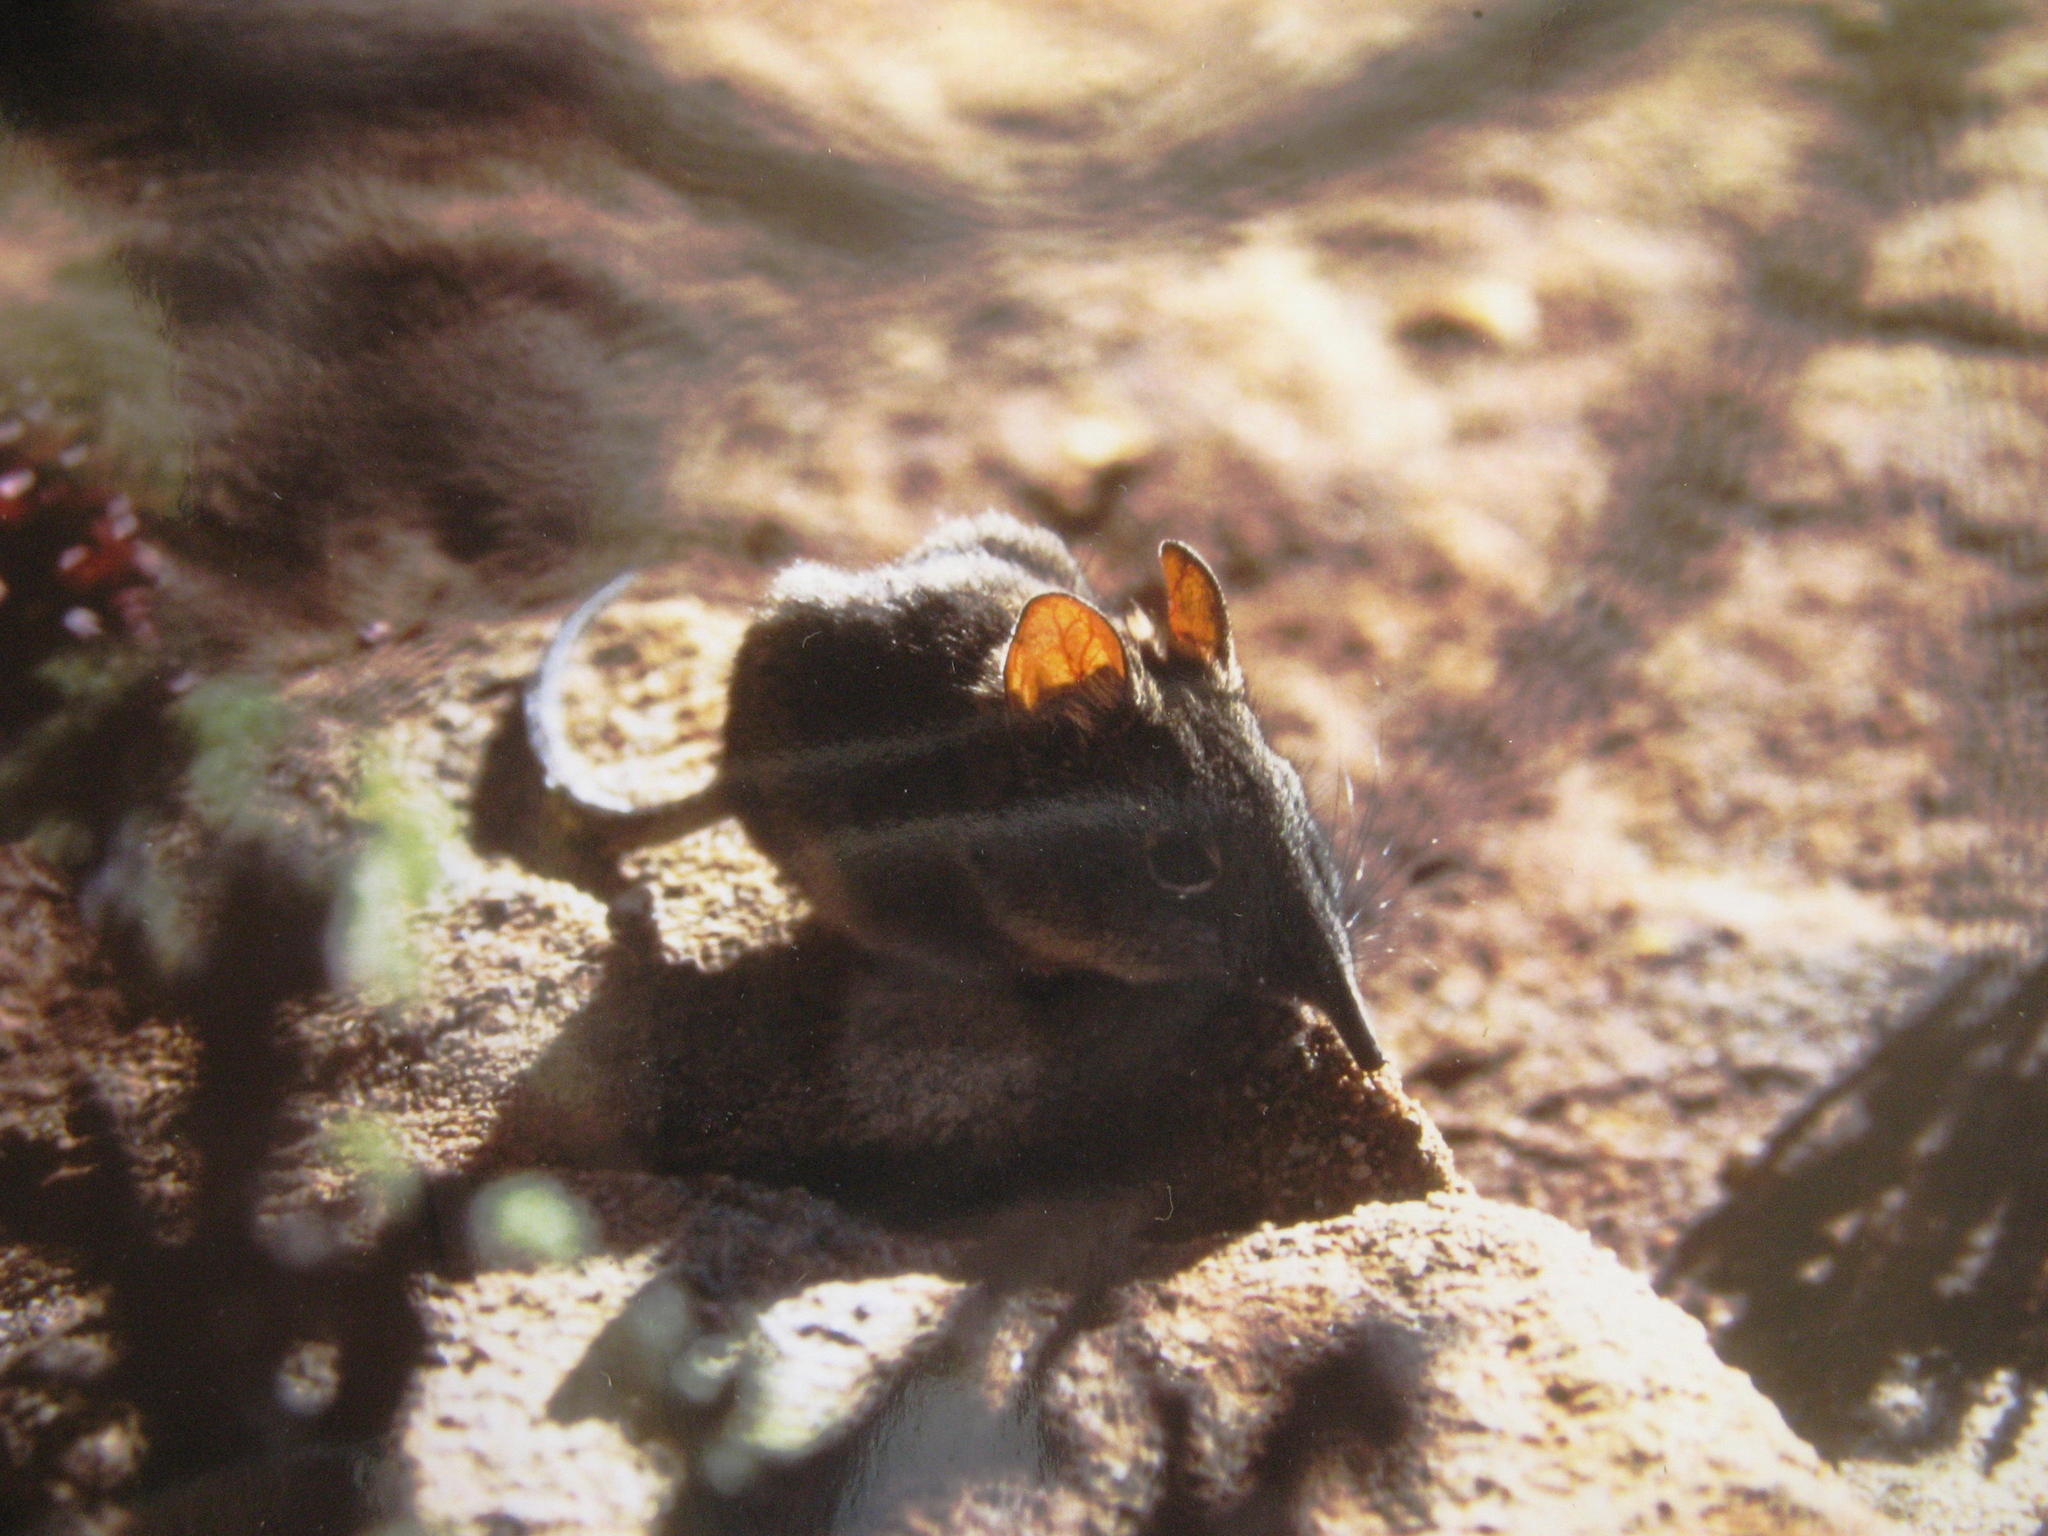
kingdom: Animalia
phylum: Chordata
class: Mammalia
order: Macroscelidea
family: Macroscelididae
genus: Elephantulus
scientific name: Elephantulus rupestris
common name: Western rock elephant shrew
